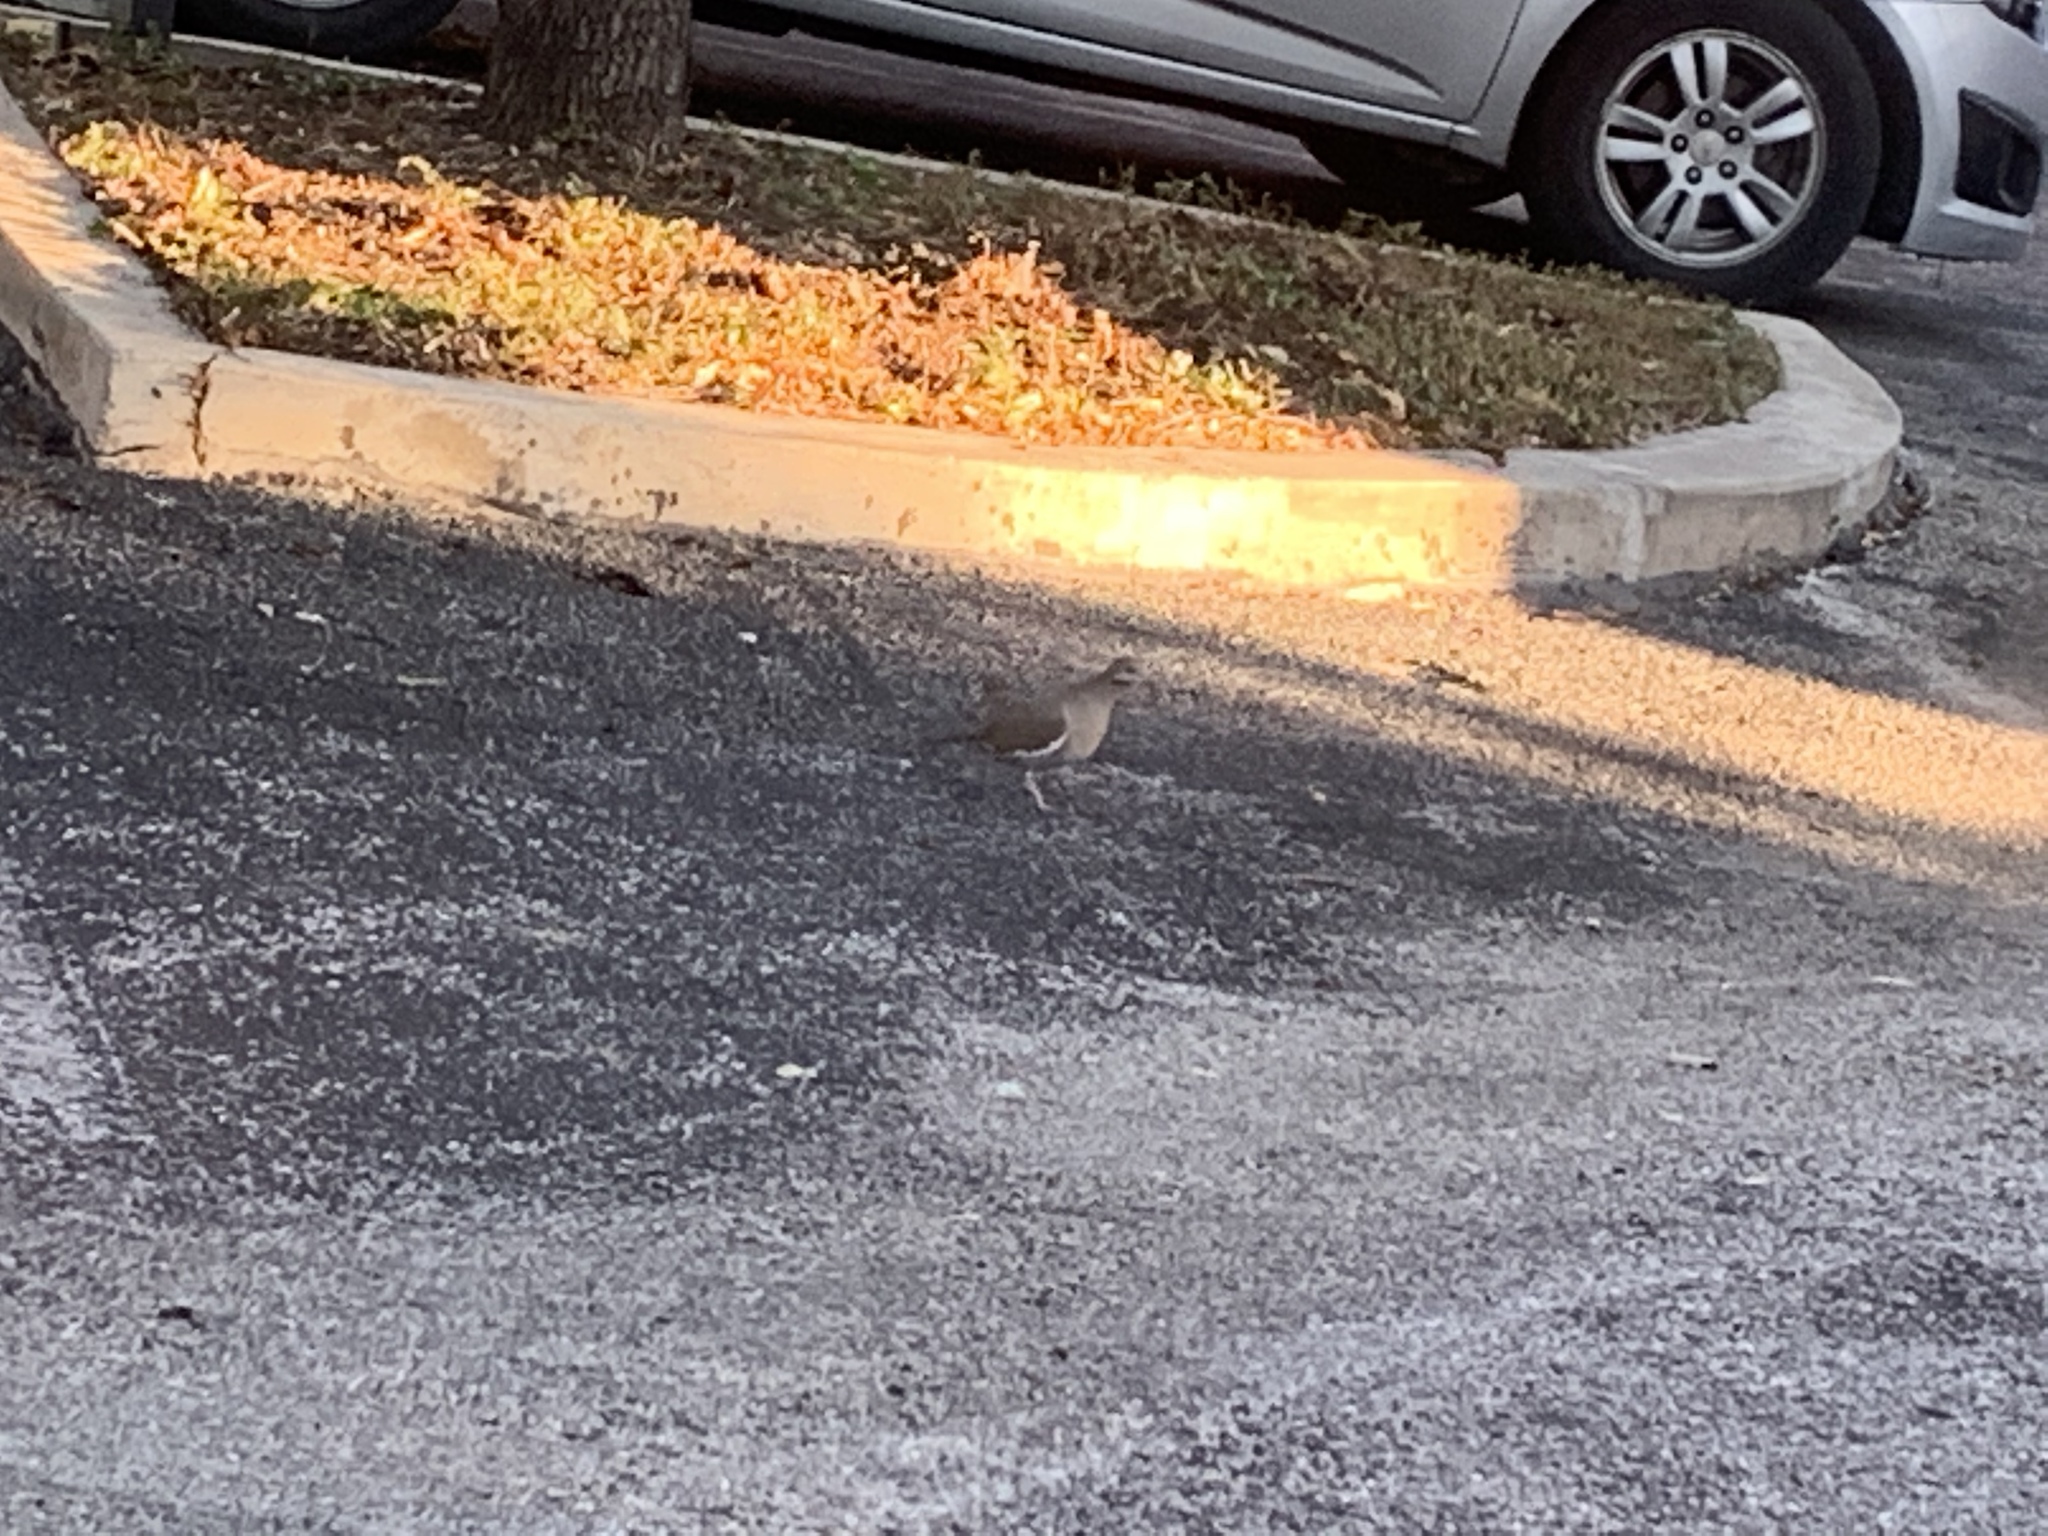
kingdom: Animalia
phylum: Chordata
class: Aves
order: Columbiformes
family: Columbidae
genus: Zenaida
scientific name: Zenaida asiatica
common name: White-winged dove
